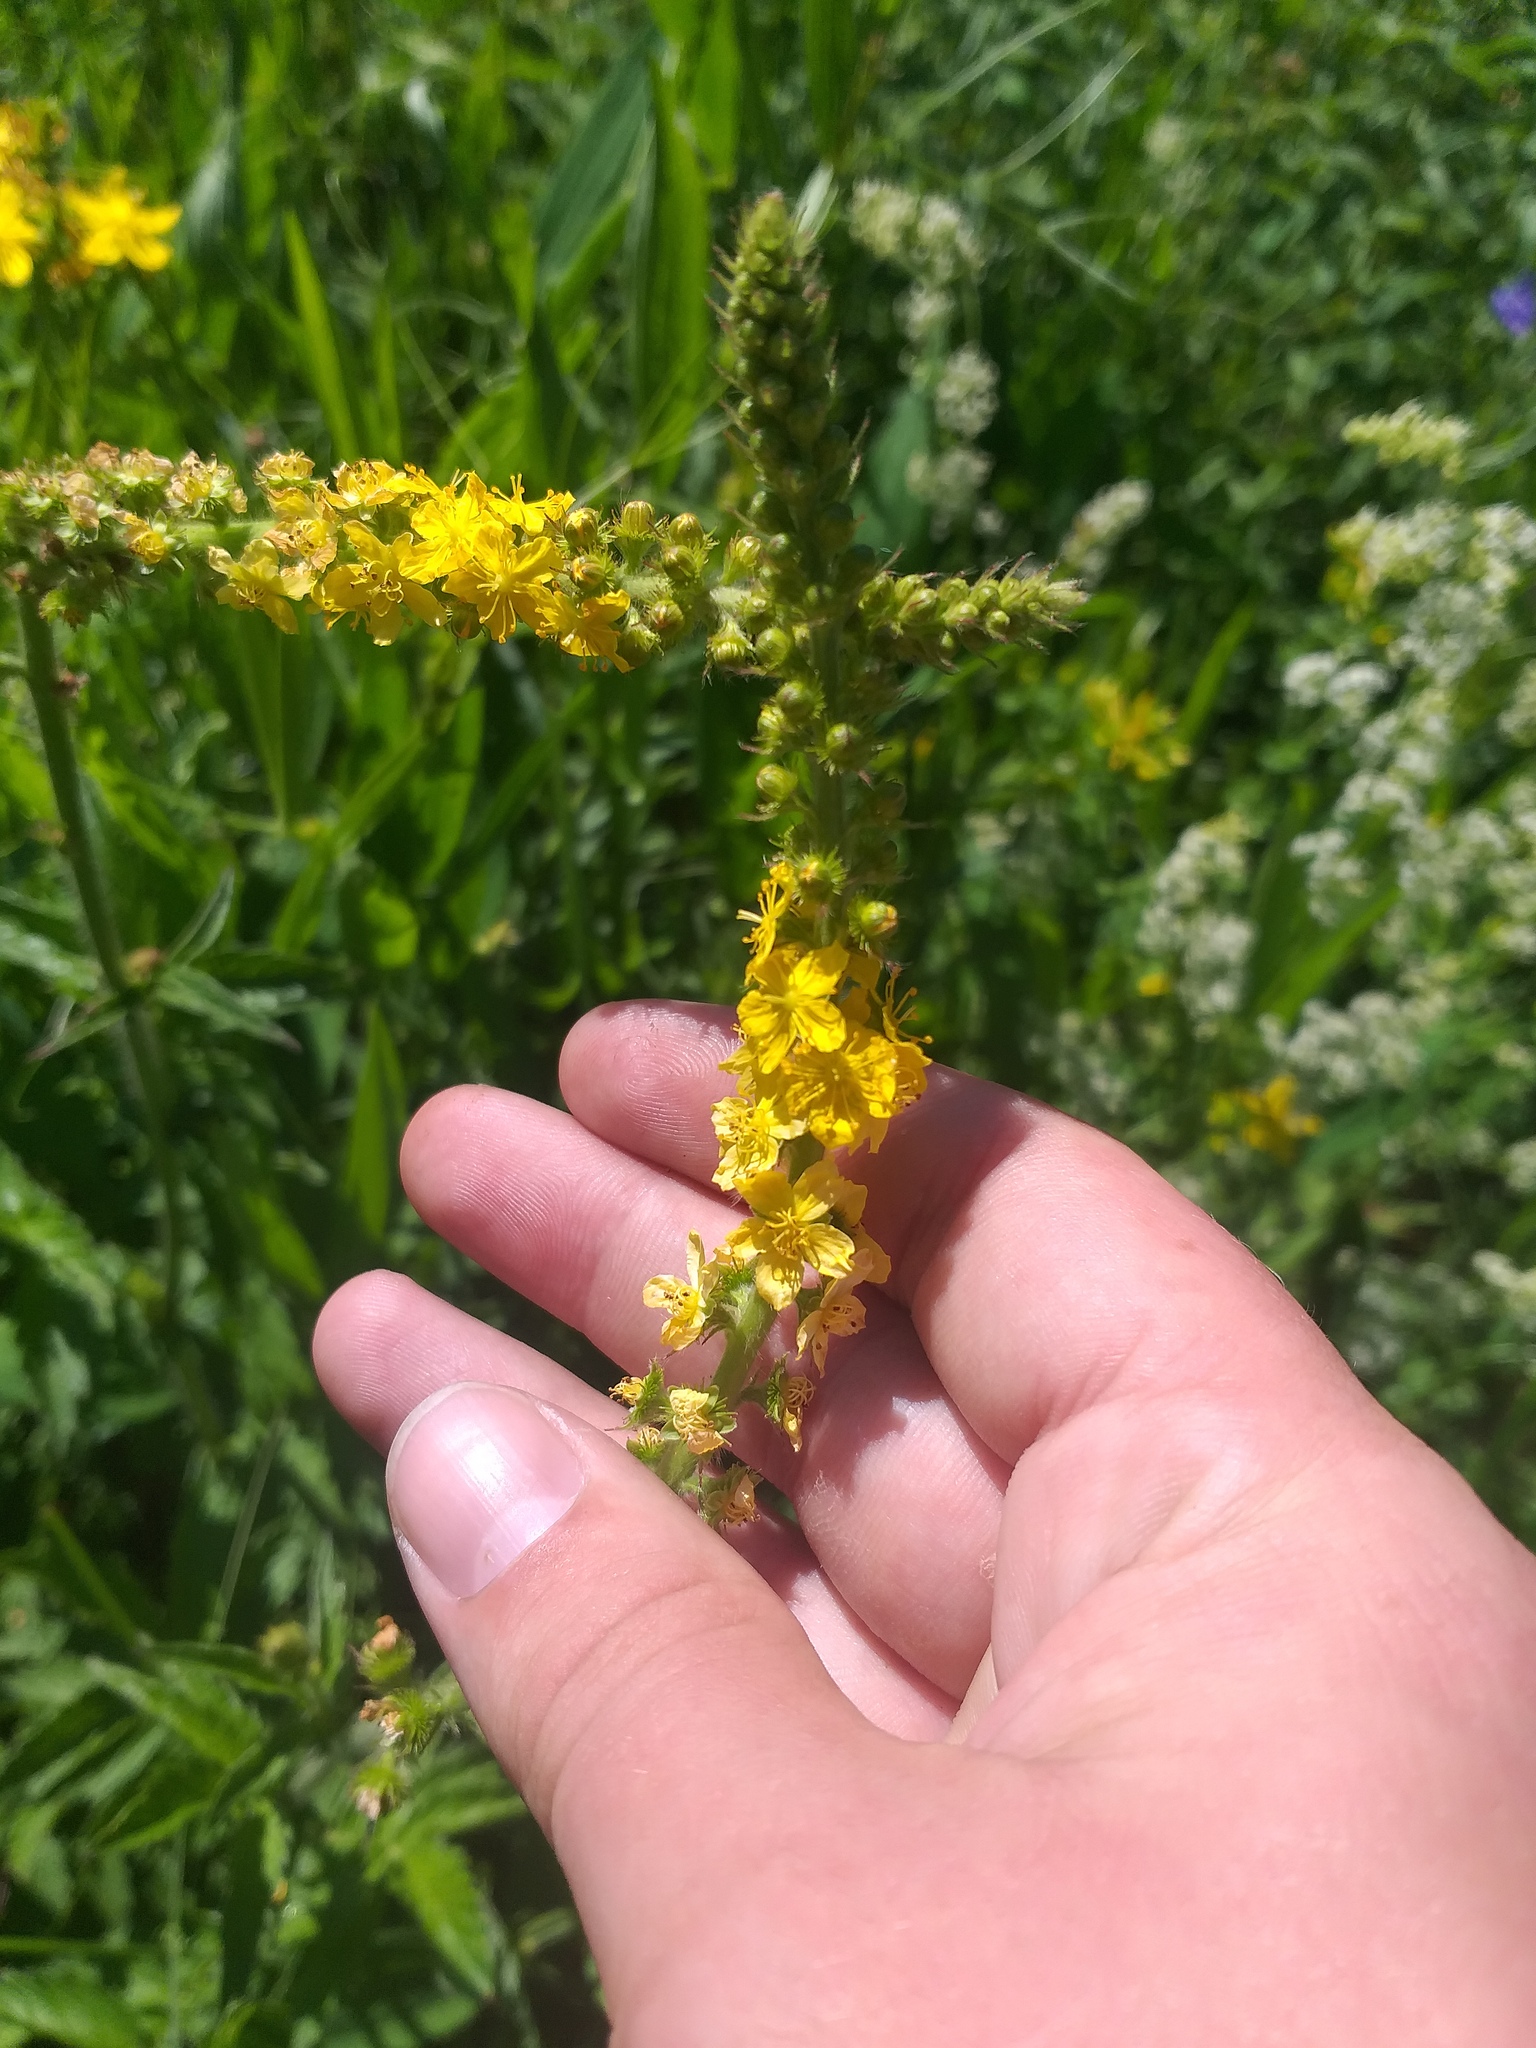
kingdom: Plantae
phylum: Tracheophyta
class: Magnoliopsida
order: Rosales
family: Rosaceae
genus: Agrimonia
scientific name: Agrimonia eupatoria
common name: Agrimony
